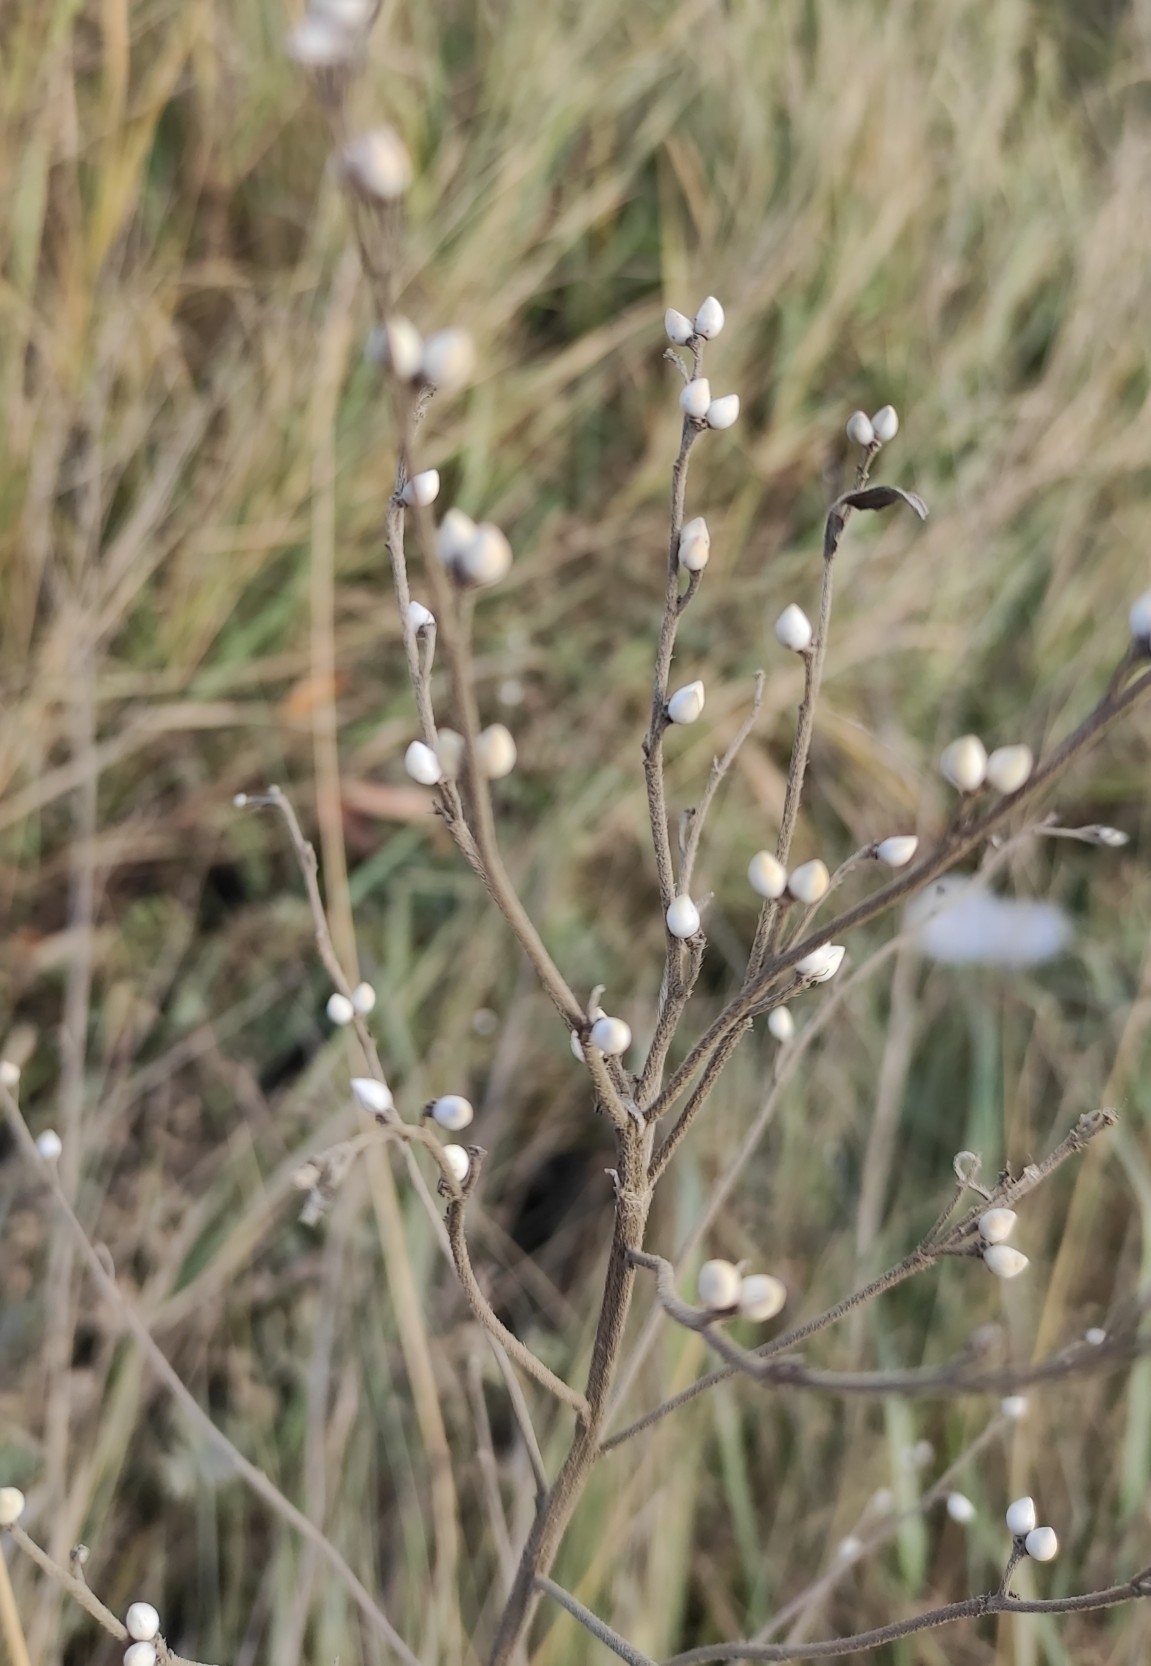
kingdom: Plantae
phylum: Tracheophyta
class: Magnoliopsida
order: Boraginales
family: Boraginaceae
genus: Lithospermum
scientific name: Lithospermum officinale
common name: Common gromwell
